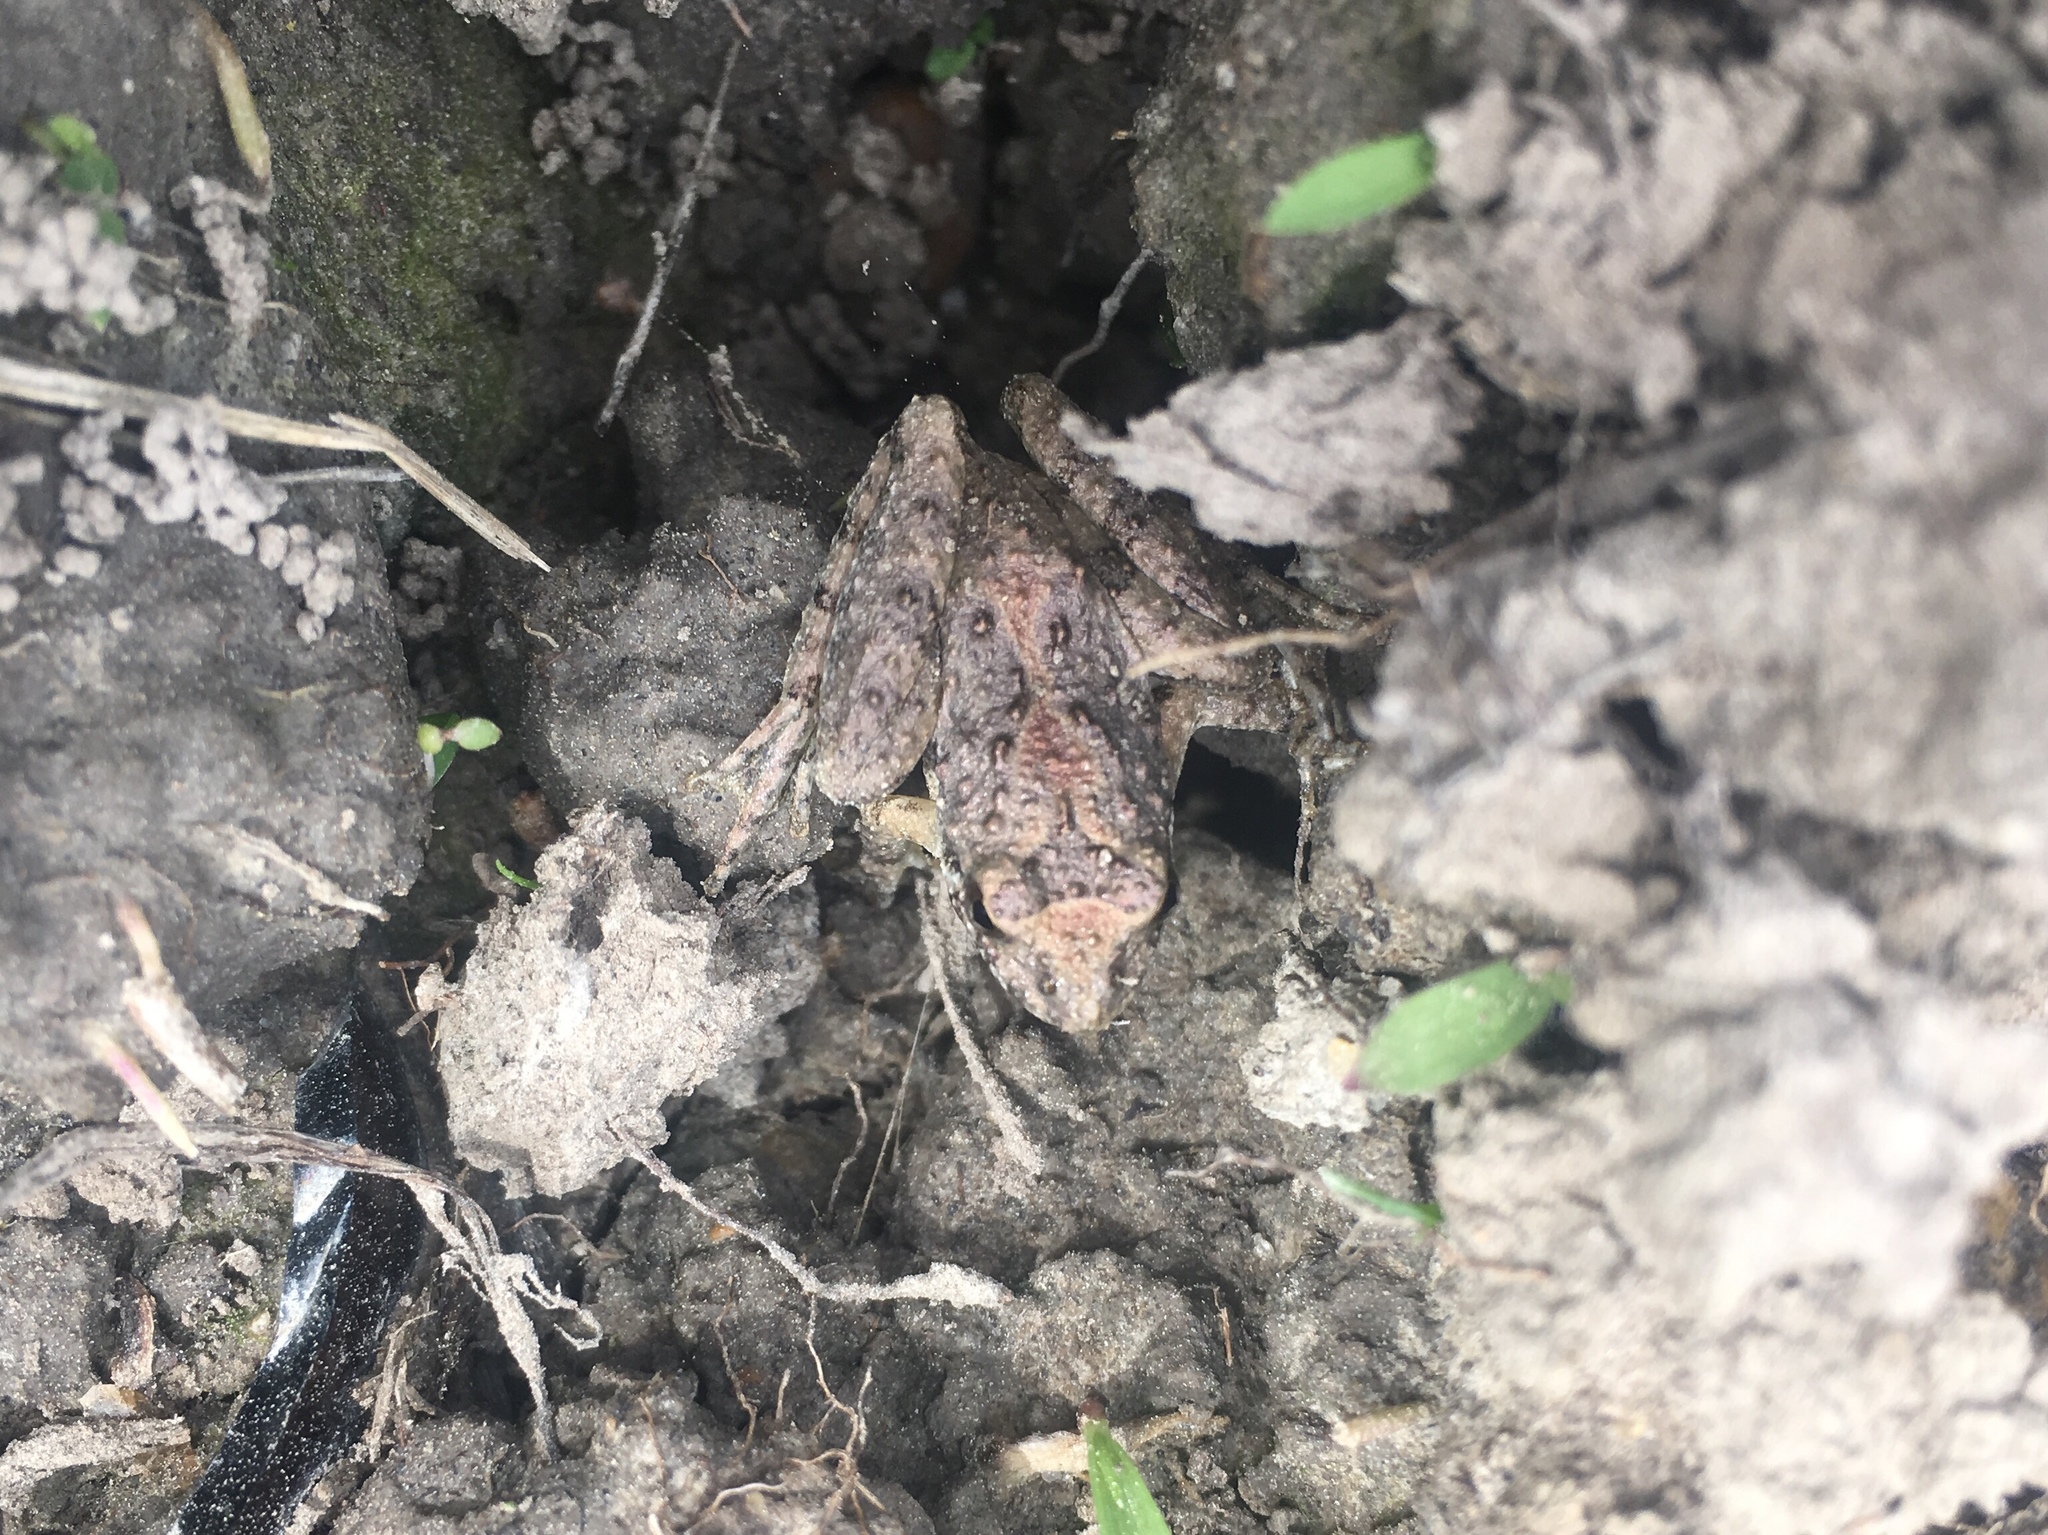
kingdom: Animalia
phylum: Chordata
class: Amphibia
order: Anura
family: Hylidae
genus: Acris
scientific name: Acris blanchardi
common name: Blanchard's cricket frog
